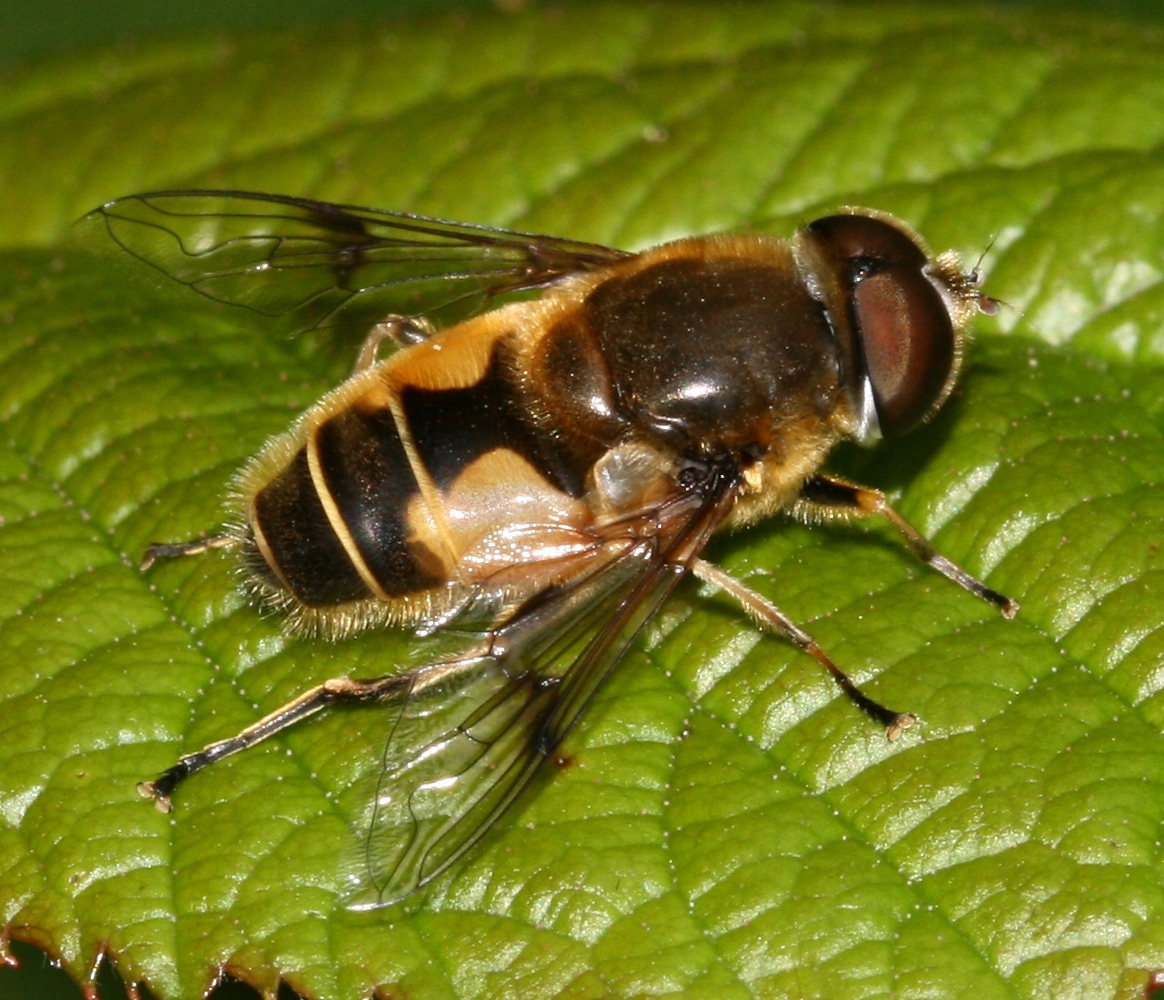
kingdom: Animalia
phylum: Arthropoda
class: Insecta
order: Diptera
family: Syrphidae
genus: Cheilosia
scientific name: Cheilosia morio
